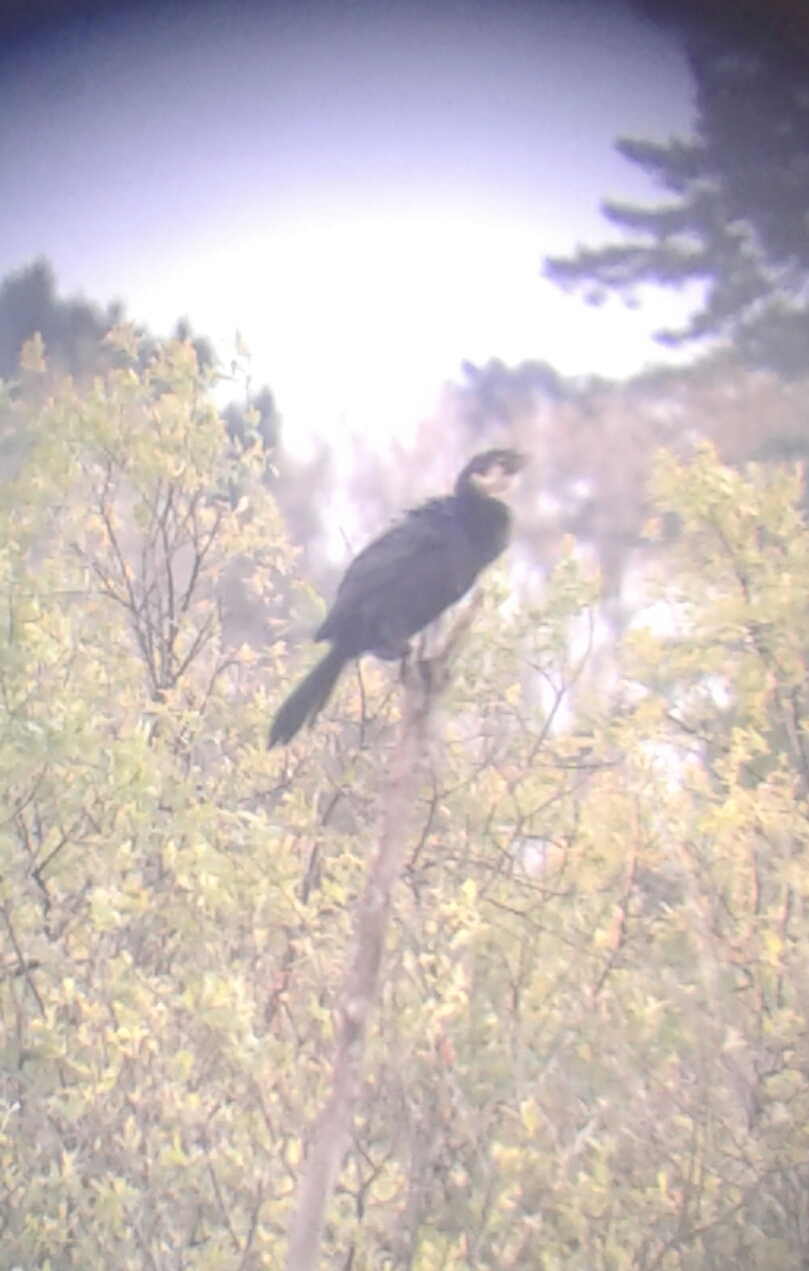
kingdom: Animalia
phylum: Chordata
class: Aves
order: Suliformes
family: Phalacrocoracidae
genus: Microcarbo
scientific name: Microcarbo melanoleucos
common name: Little pied cormorant
